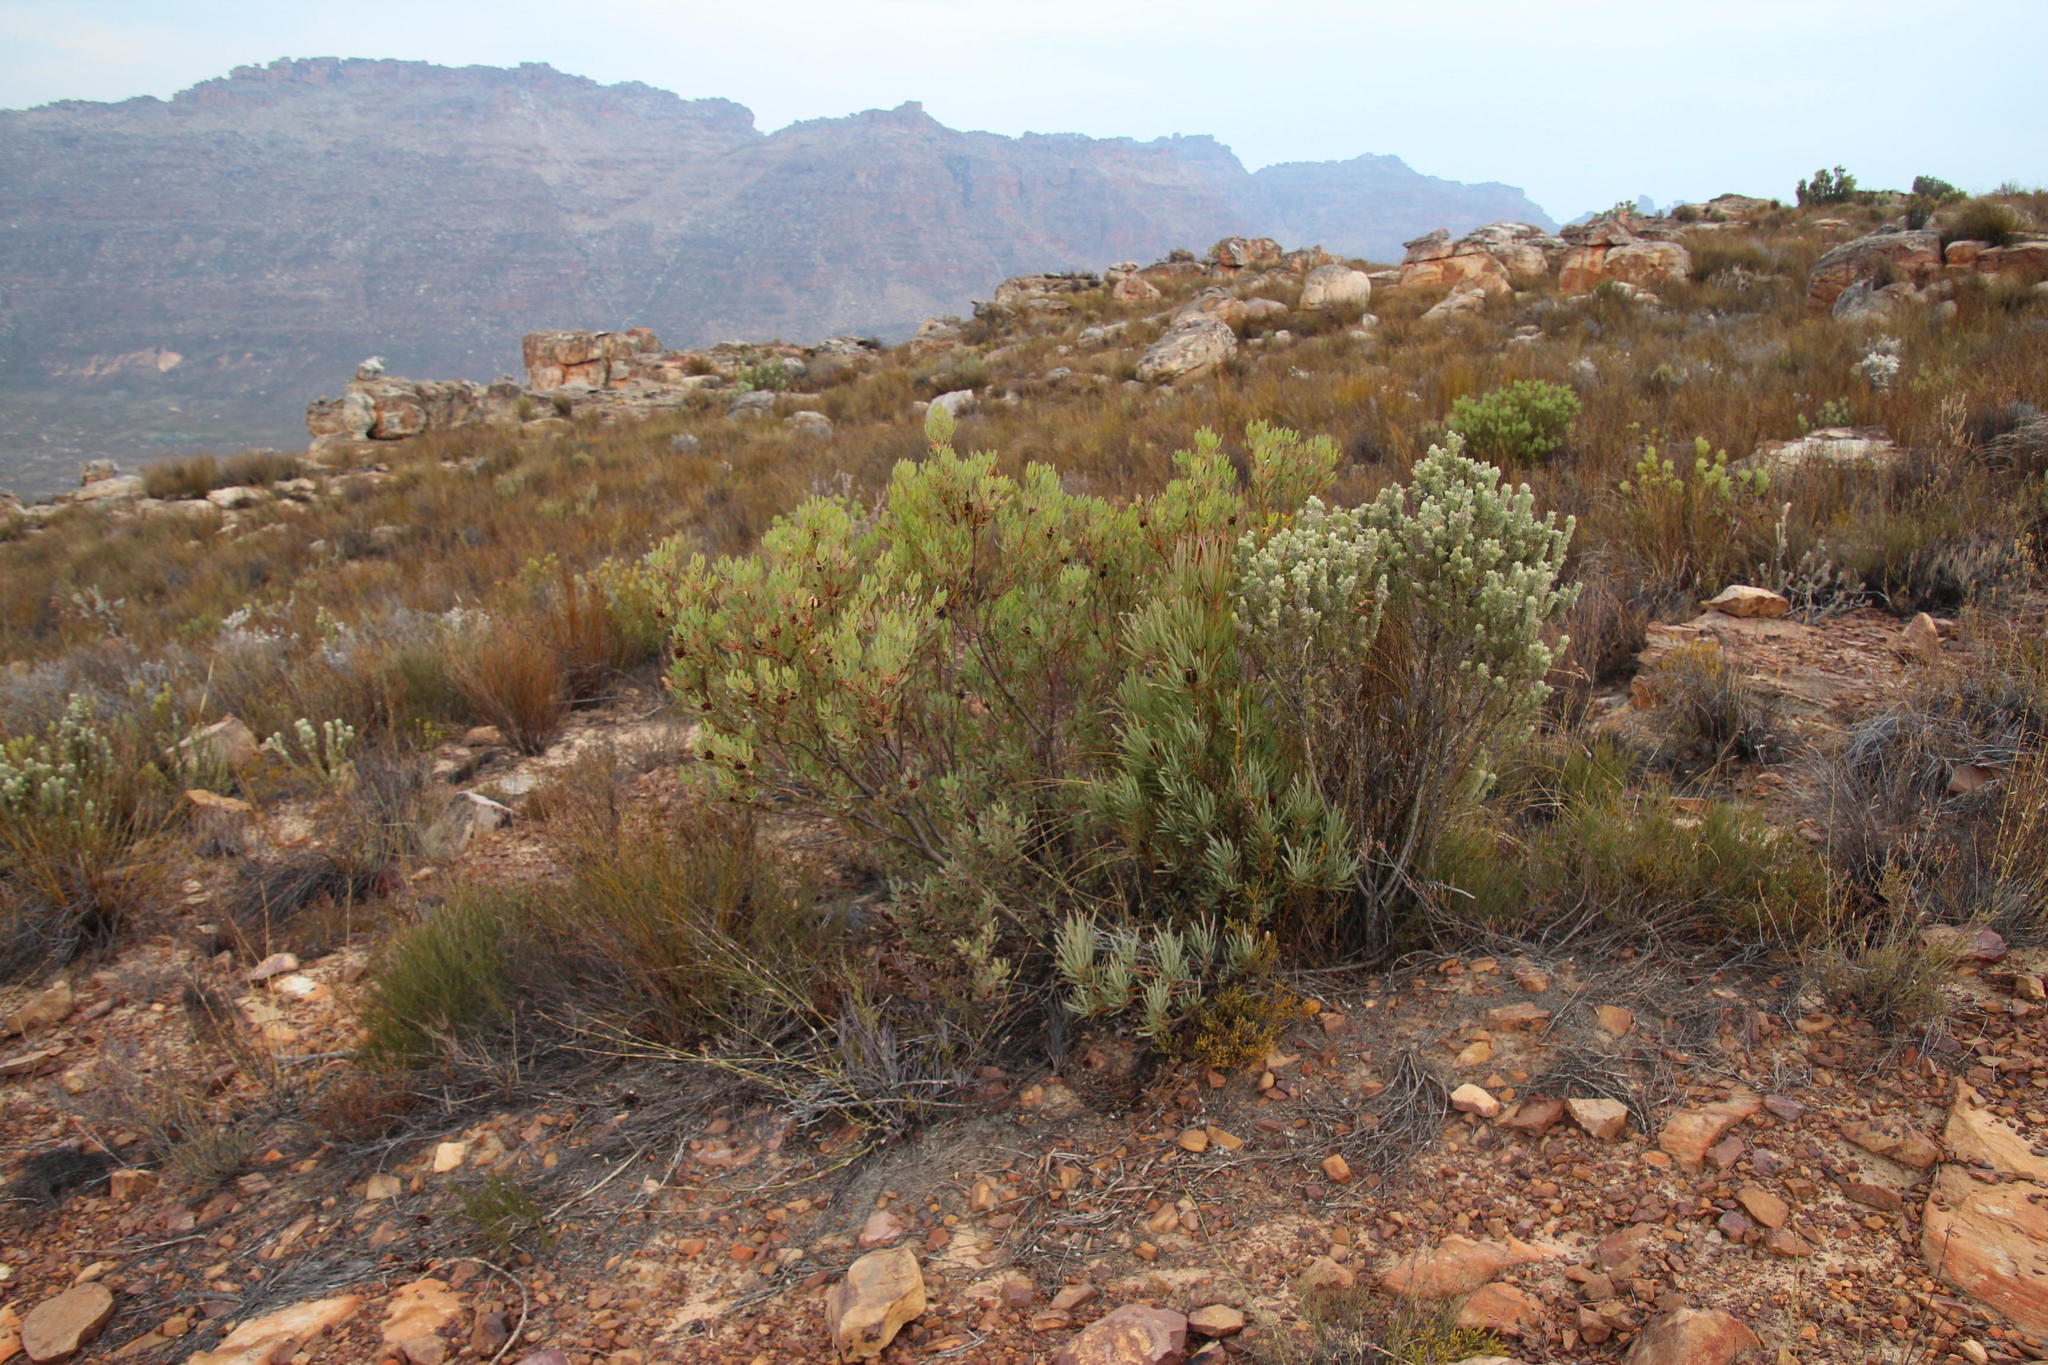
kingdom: Plantae
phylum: Tracheophyta
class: Magnoliopsida
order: Proteales
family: Proteaceae
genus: Protea
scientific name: Protea acuminata
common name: Black-rim sugarbush
